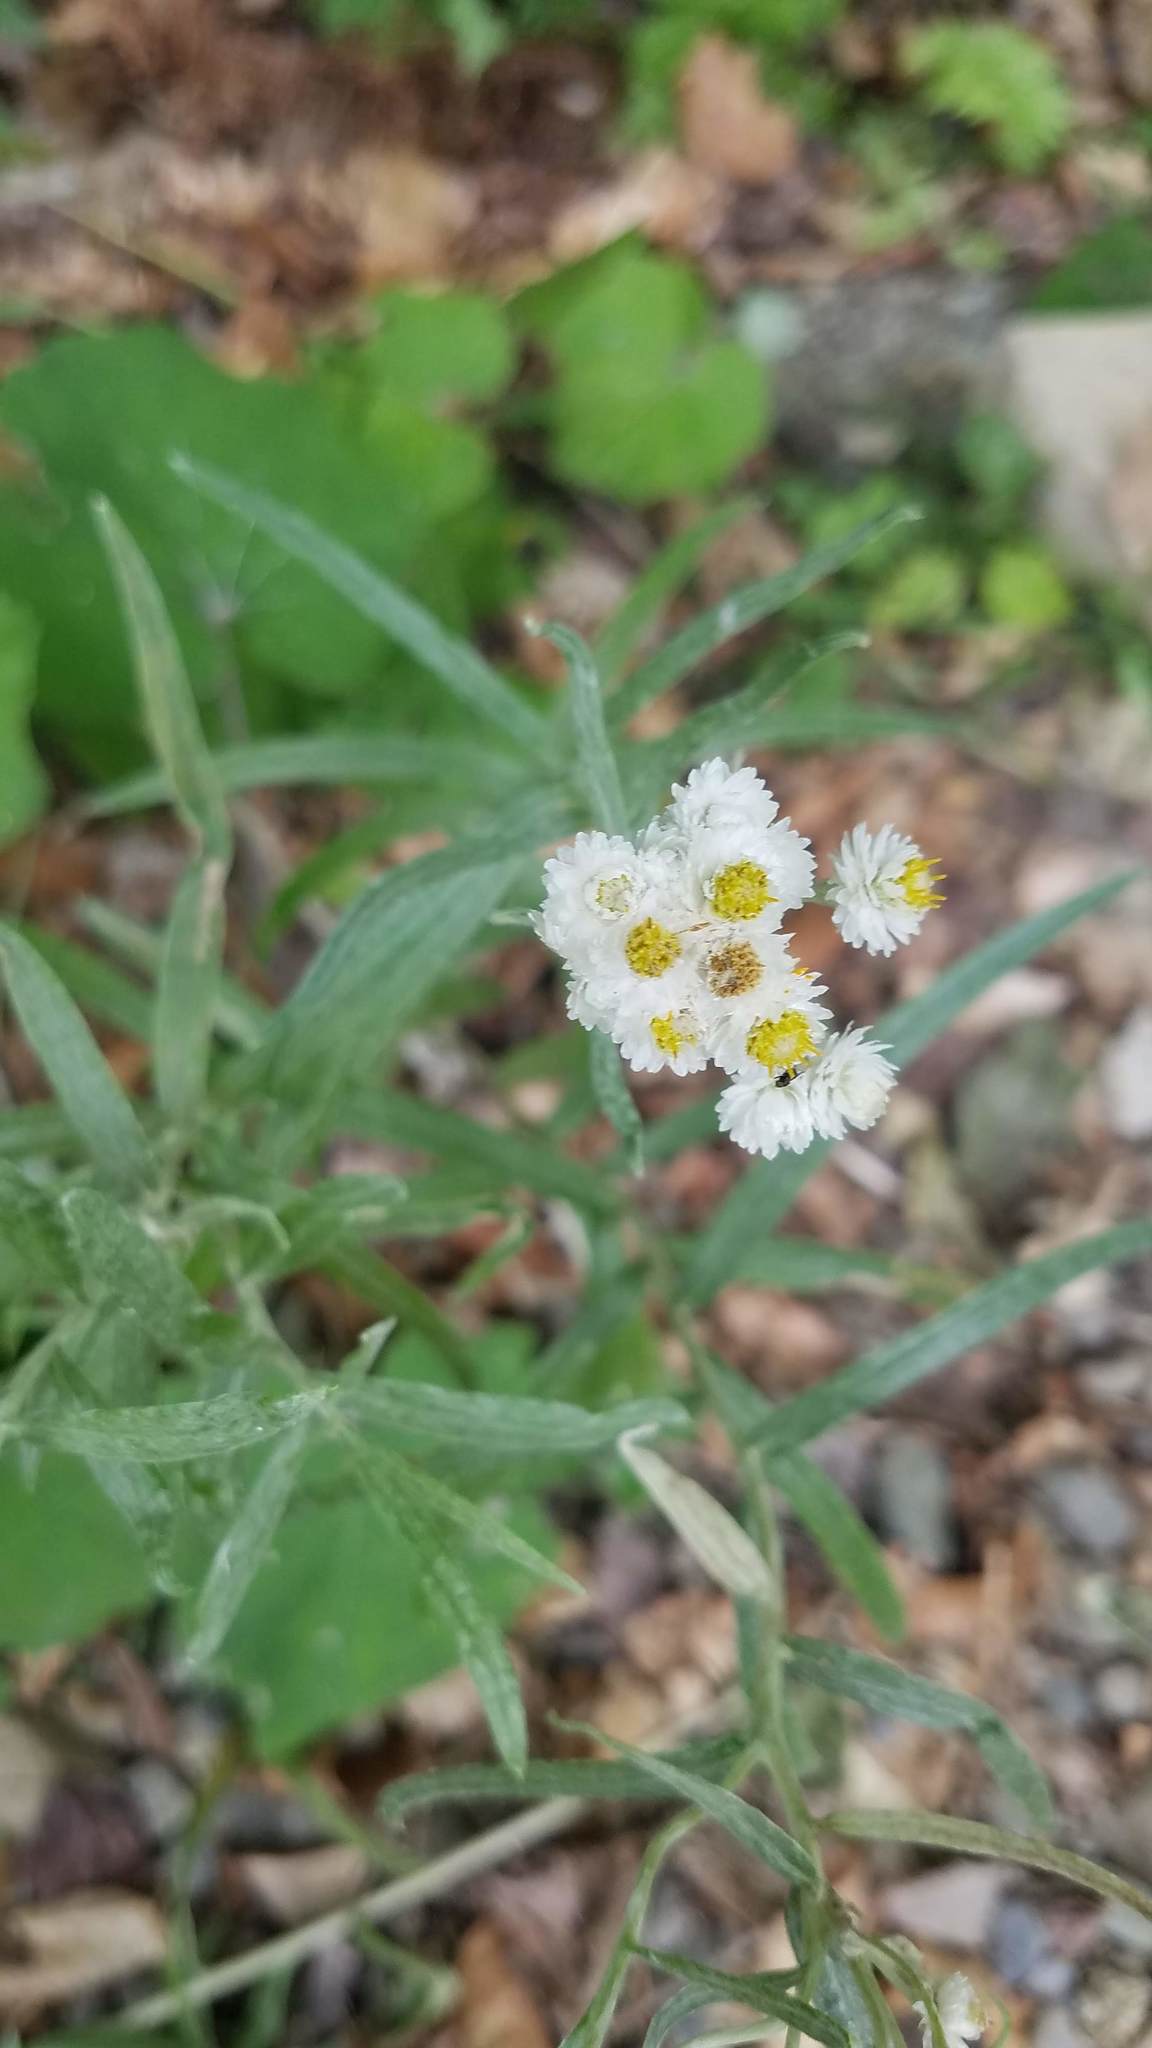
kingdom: Plantae
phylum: Tracheophyta
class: Magnoliopsida
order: Asterales
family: Asteraceae
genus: Anaphalis
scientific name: Anaphalis margaritacea
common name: Pearly everlasting
